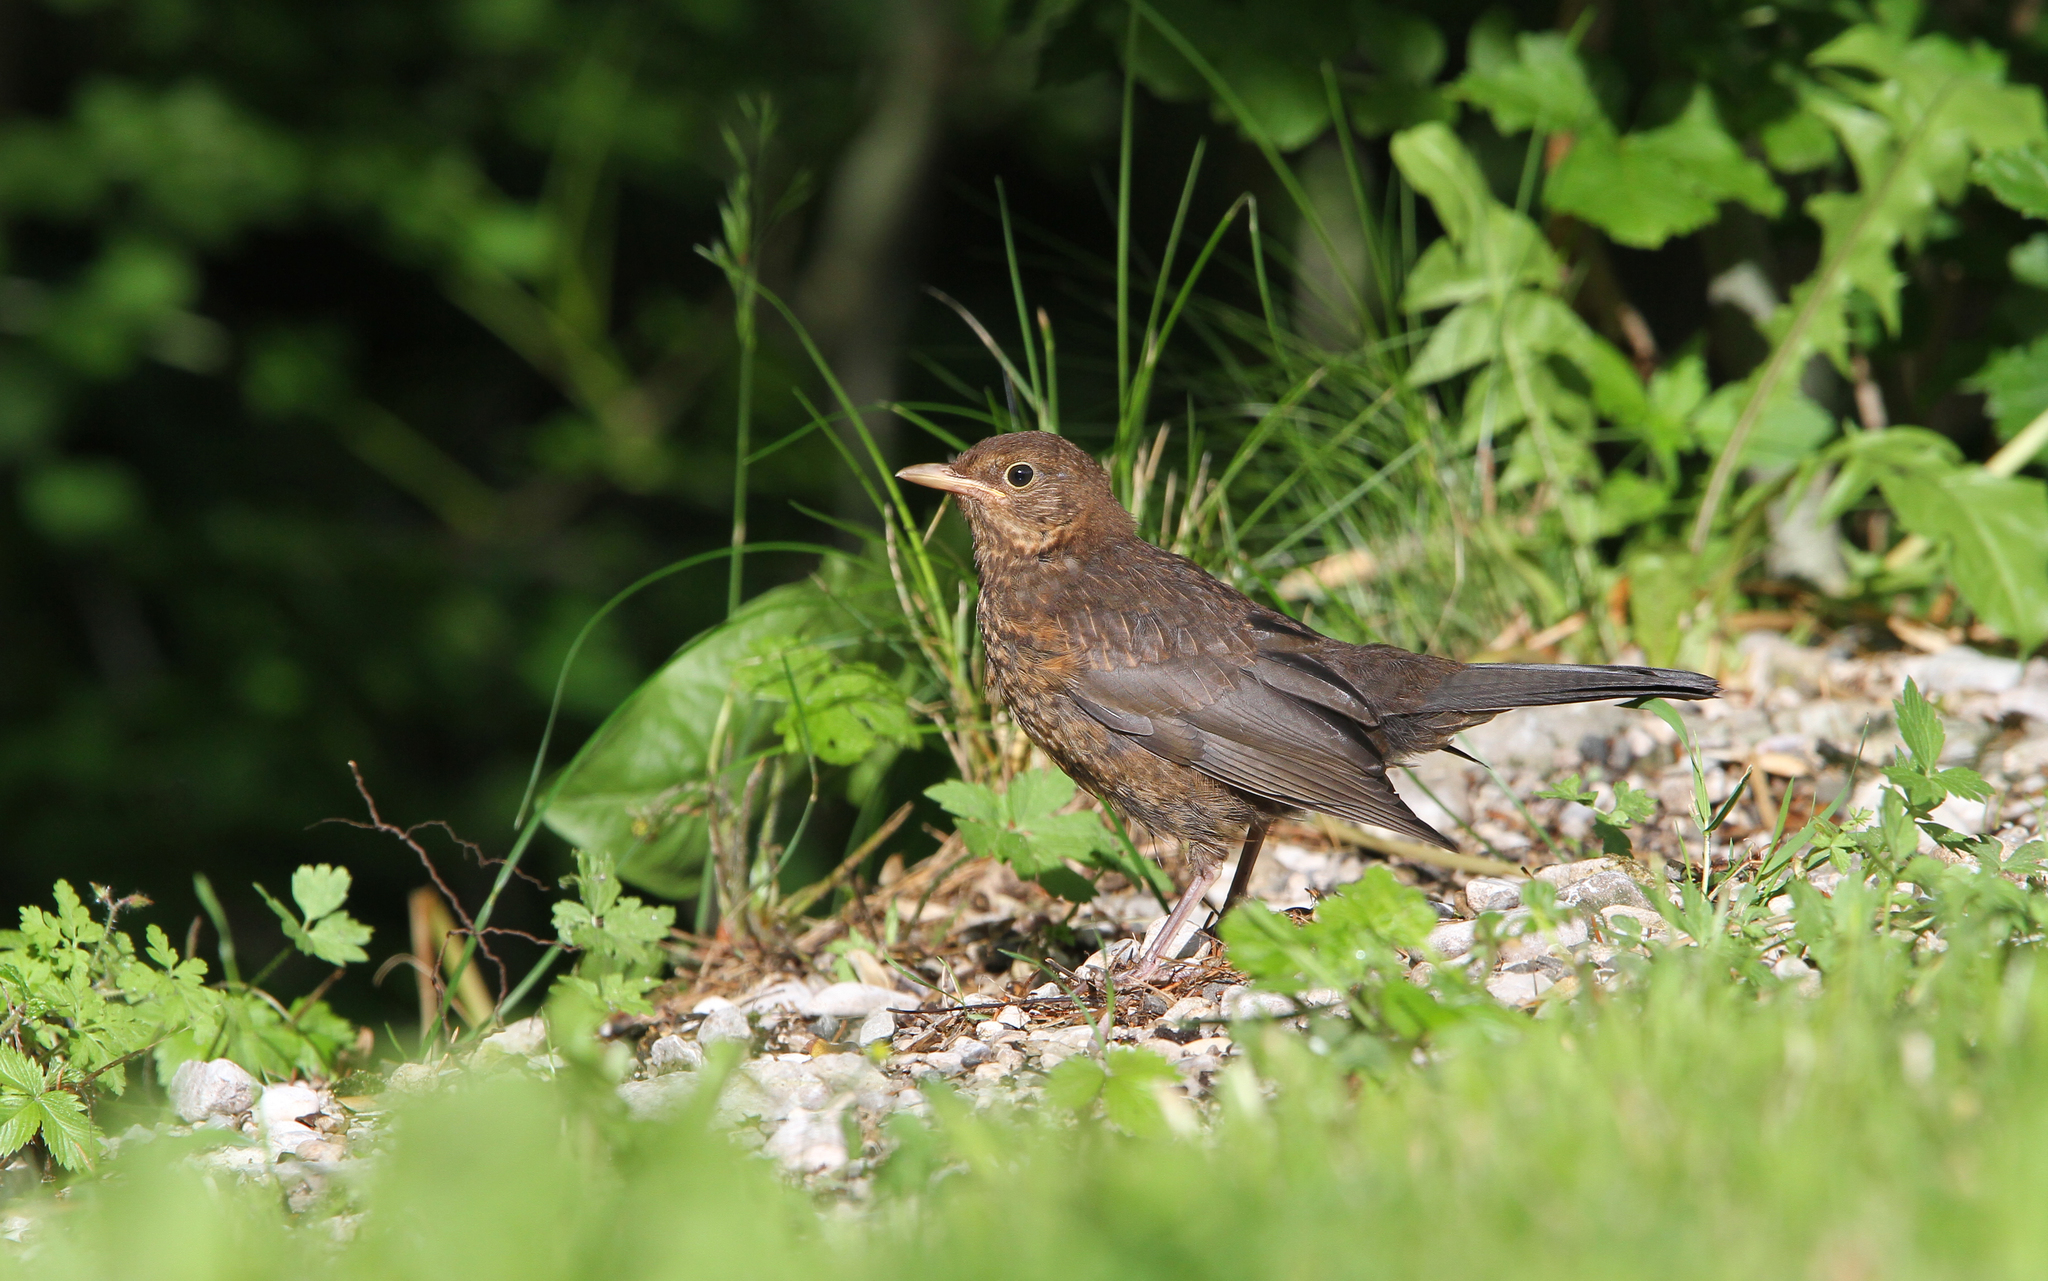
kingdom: Animalia
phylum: Chordata
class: Aves
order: Passeriformes
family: Turdidae
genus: Turdus
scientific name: Turdus merula
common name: Common blackbird
